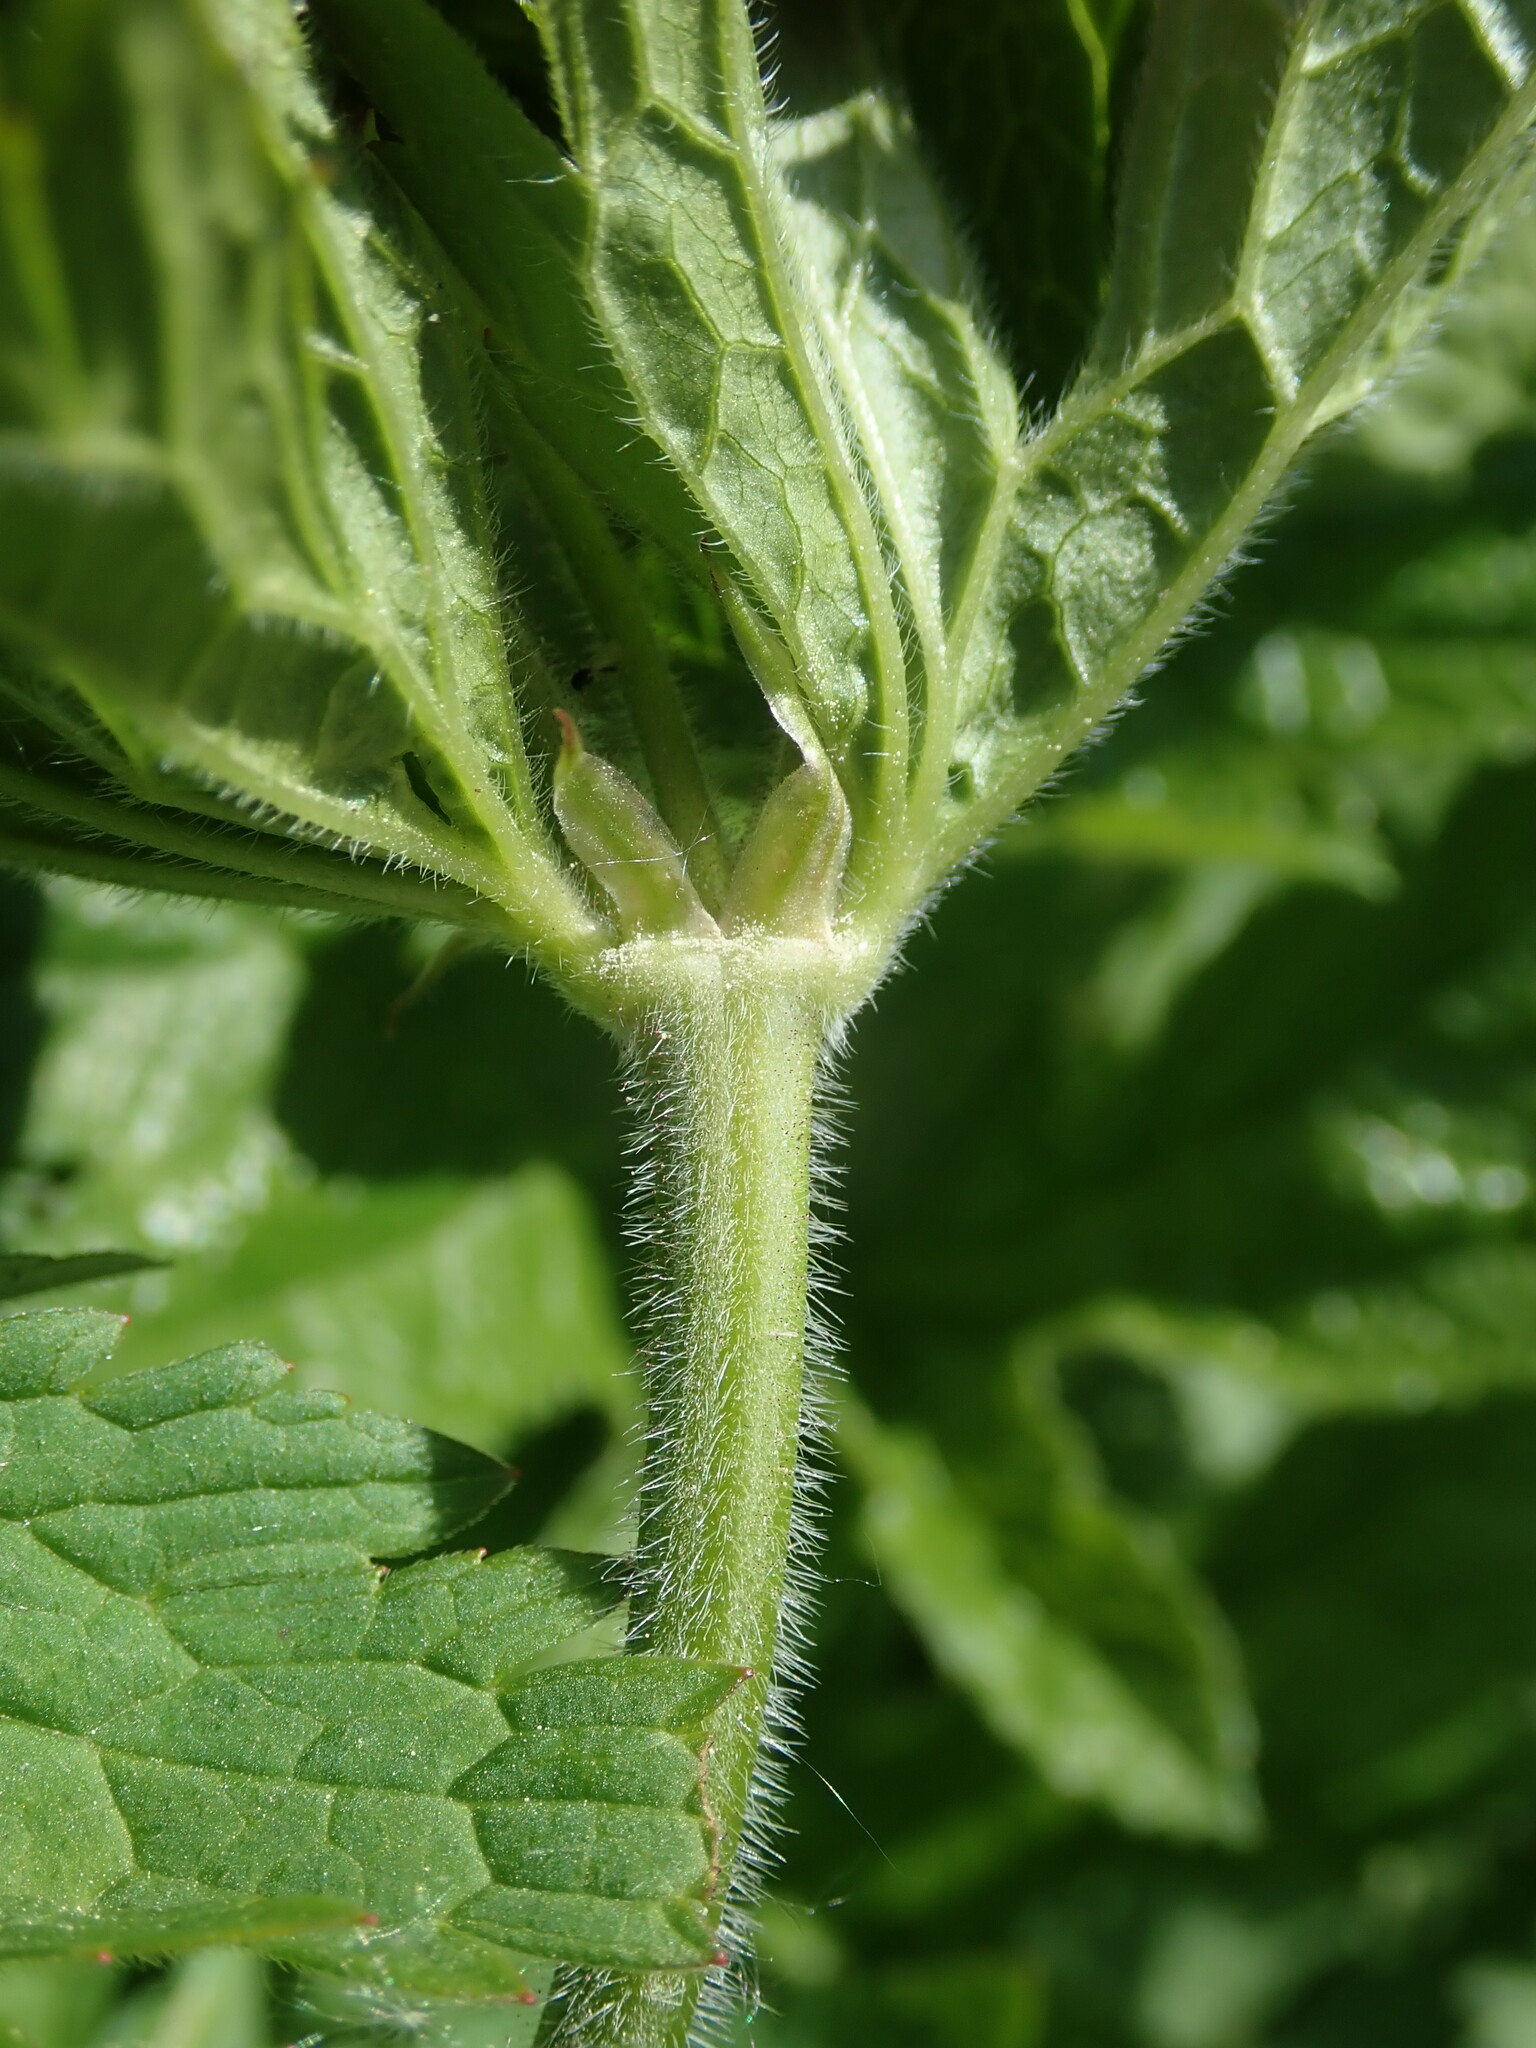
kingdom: Plantae
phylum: Tracheophyta
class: Magnoliopsida
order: Geraniales
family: Geraniaceae
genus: Geranium
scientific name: Geranium sylvaticum
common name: Wood crane's-bill
